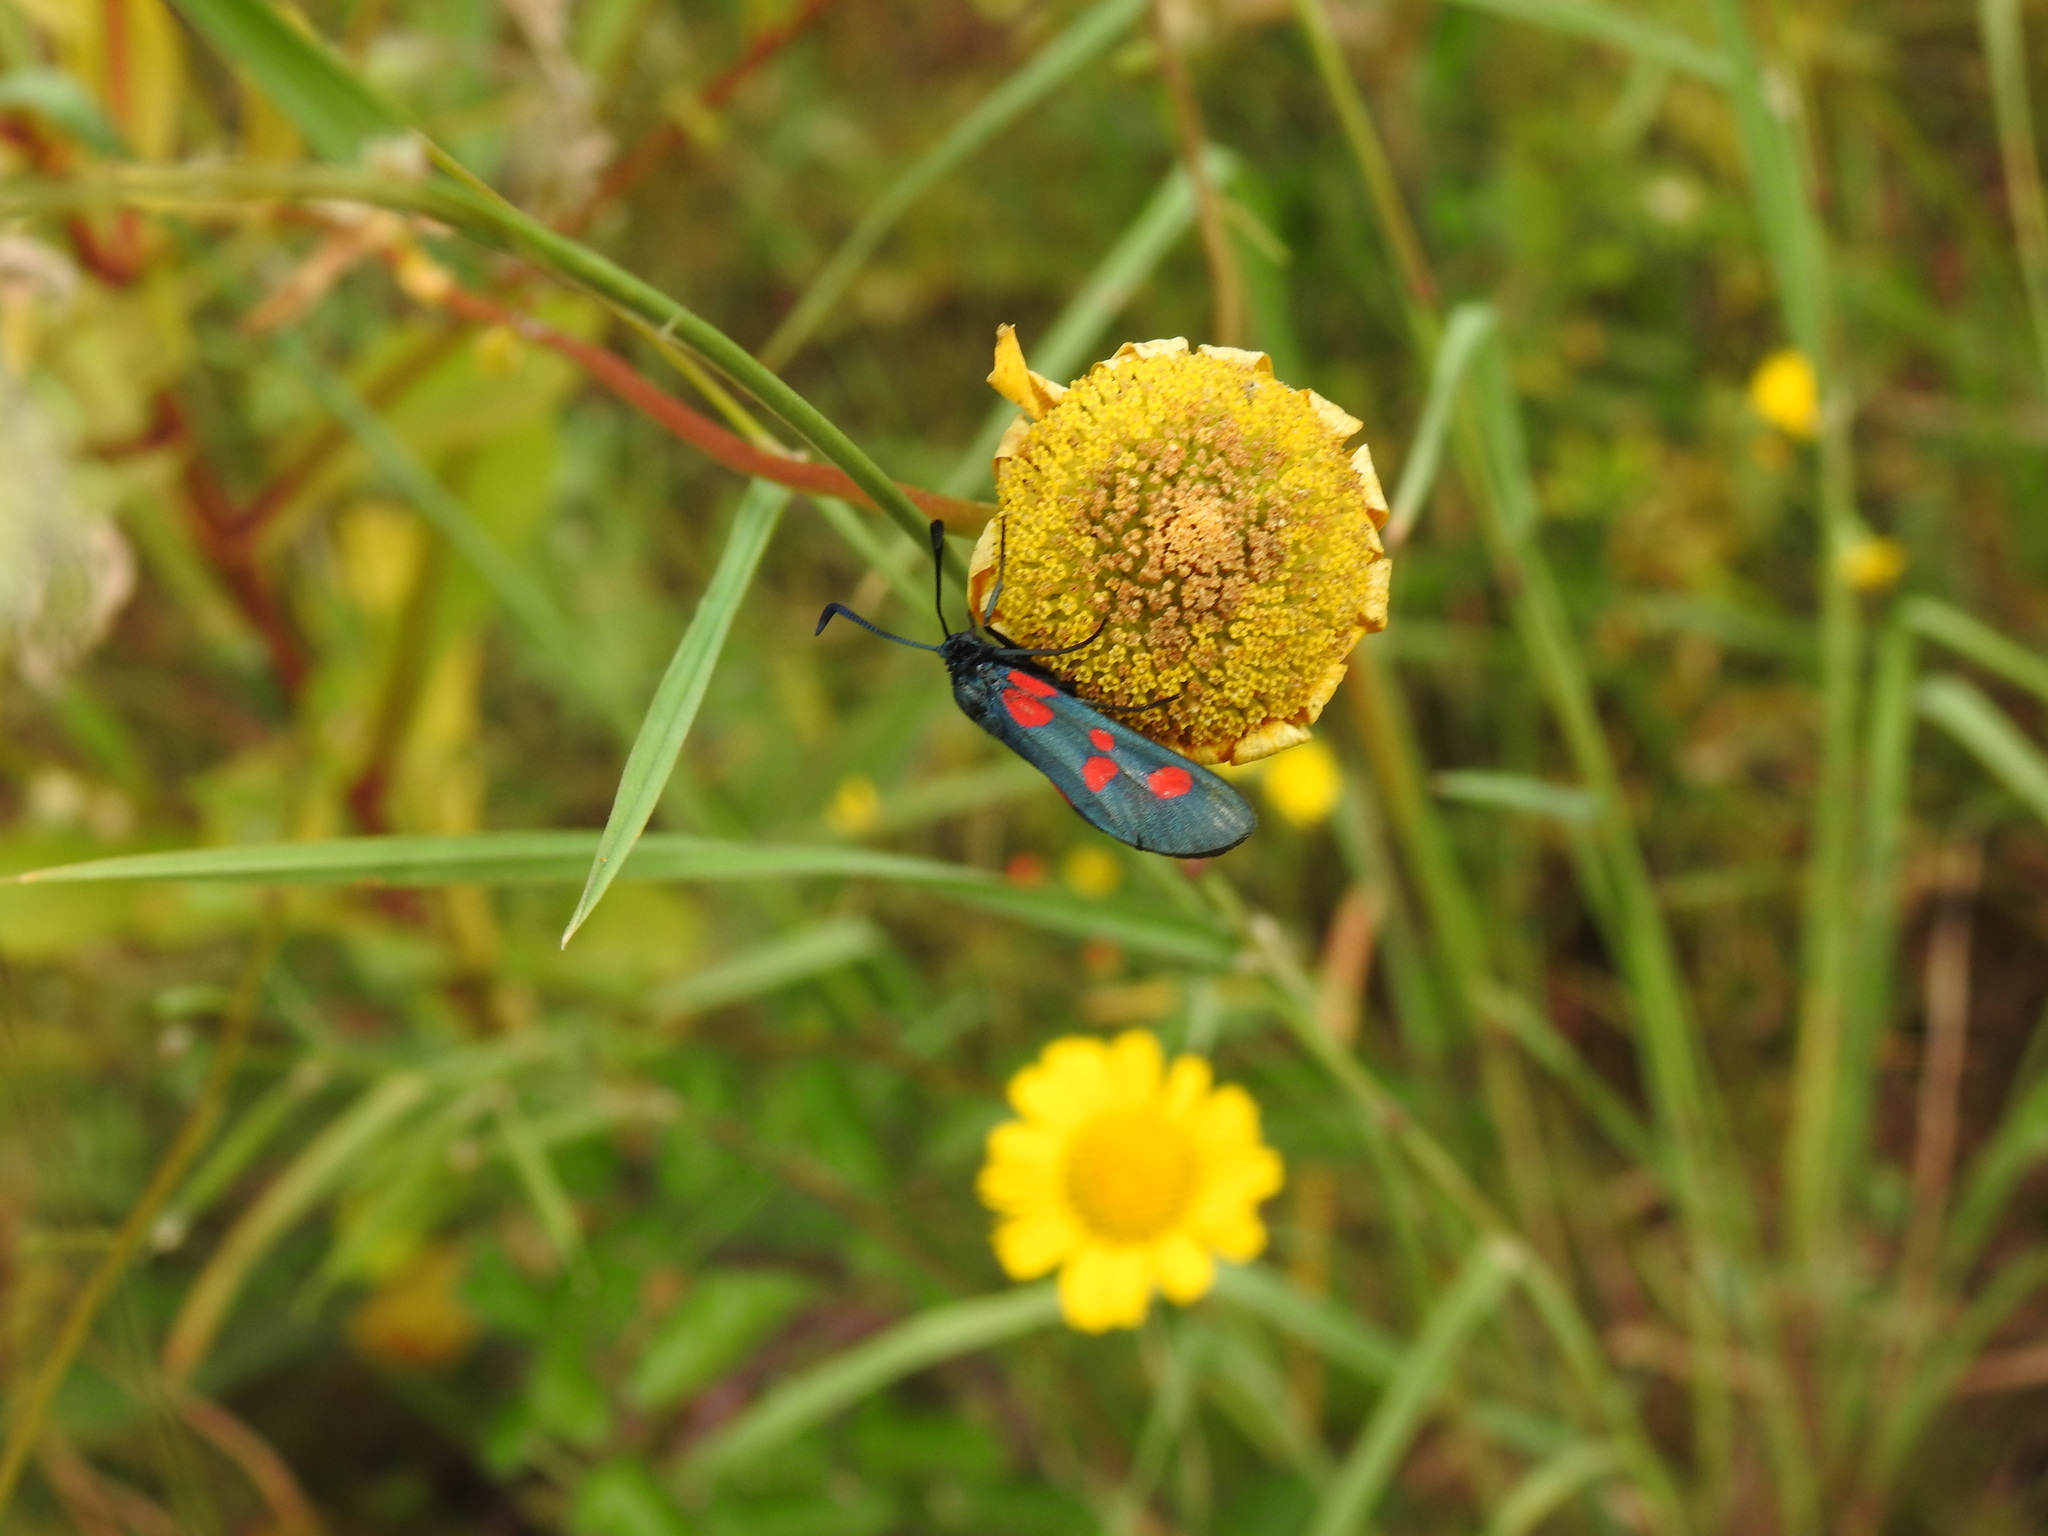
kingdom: Animalia
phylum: Arthropoda
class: Insecta
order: Lepidoptera
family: Zygaenidae
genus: Zygaena
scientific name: Zygaena trifolii
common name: Five-spot burnet
